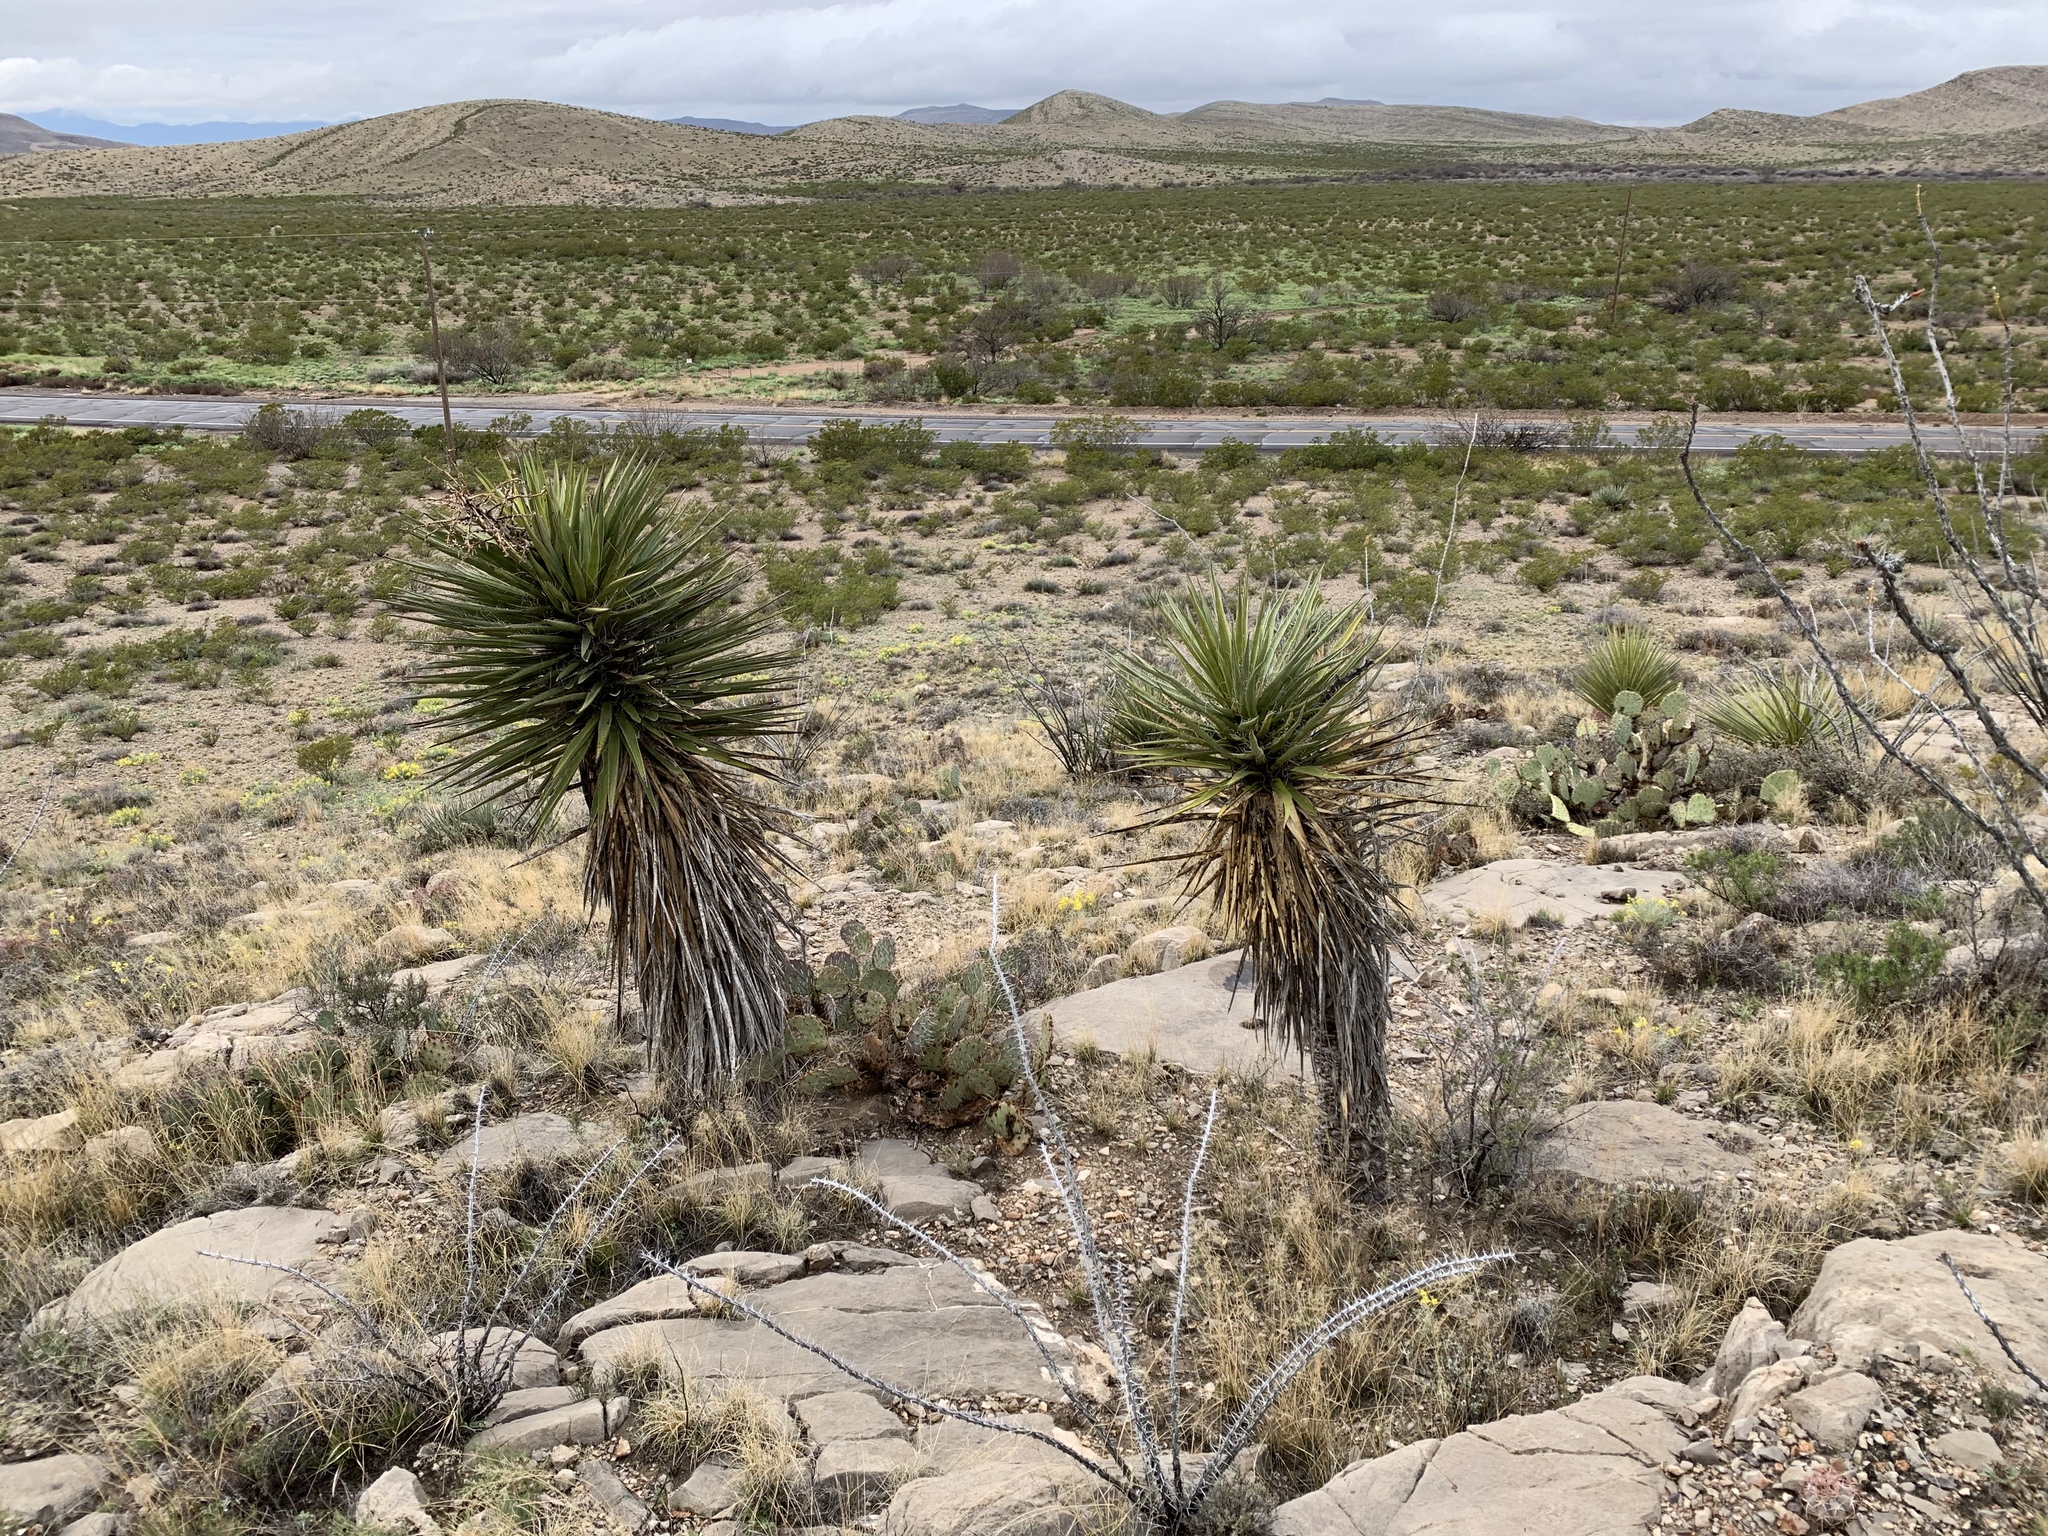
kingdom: Plantae
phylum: Tracheophyta
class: Liliopsida
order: Asparagales
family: Asparagaceae
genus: Yucca
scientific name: Yucca treculiana
